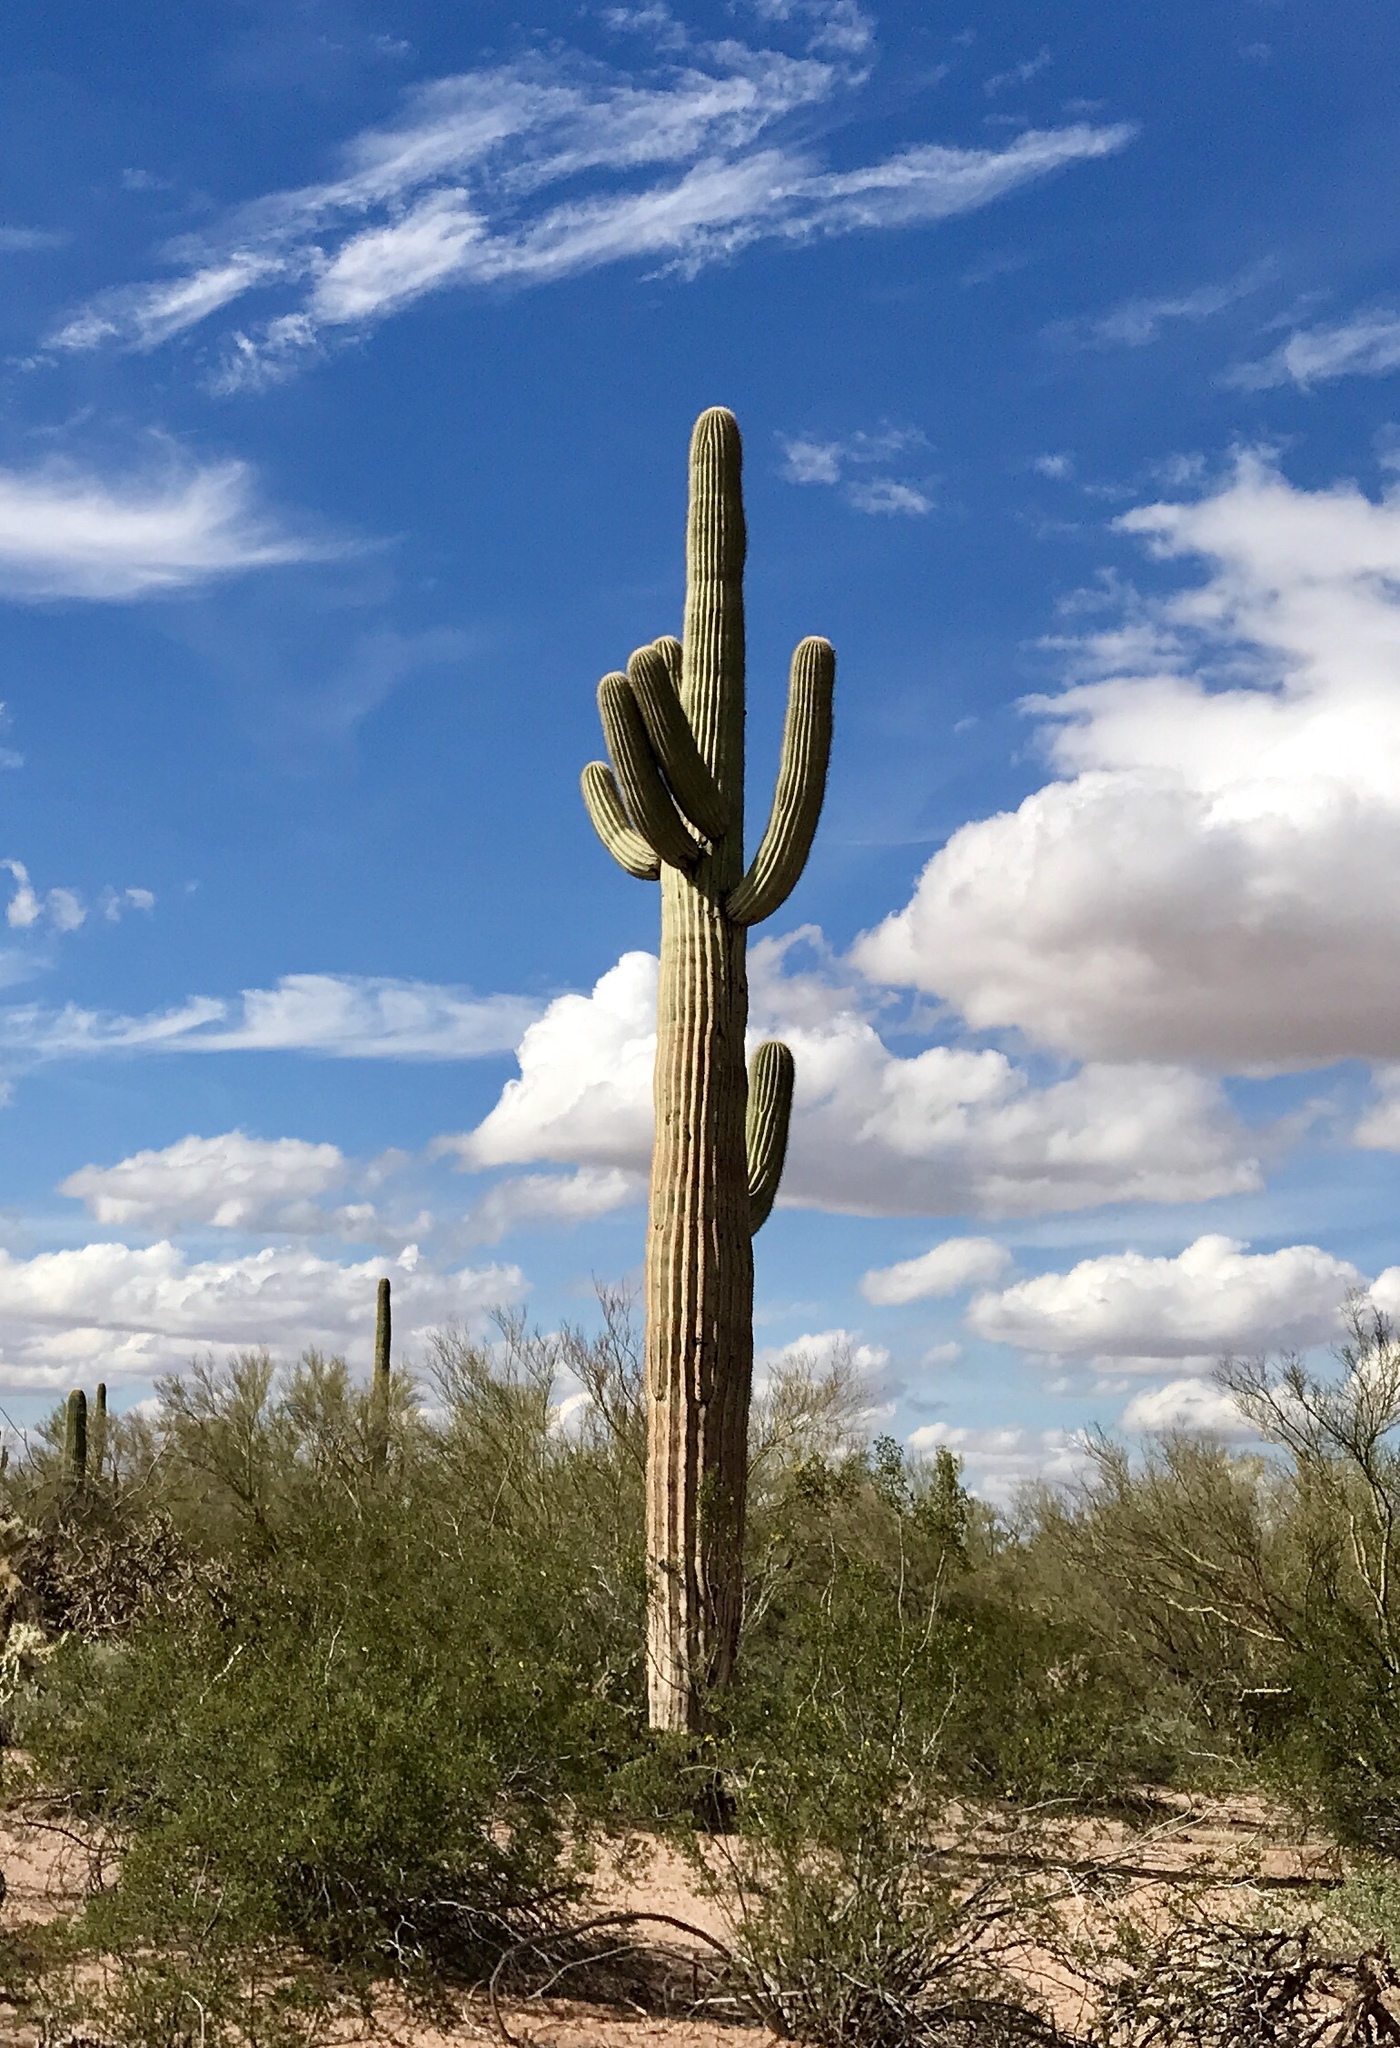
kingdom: Plantae
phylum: Tracheophyta
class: Magnoliopsida
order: Caryophyllales
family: Cactaceae
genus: Carnegiea
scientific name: Carnegiea gigantea
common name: Saguaro
